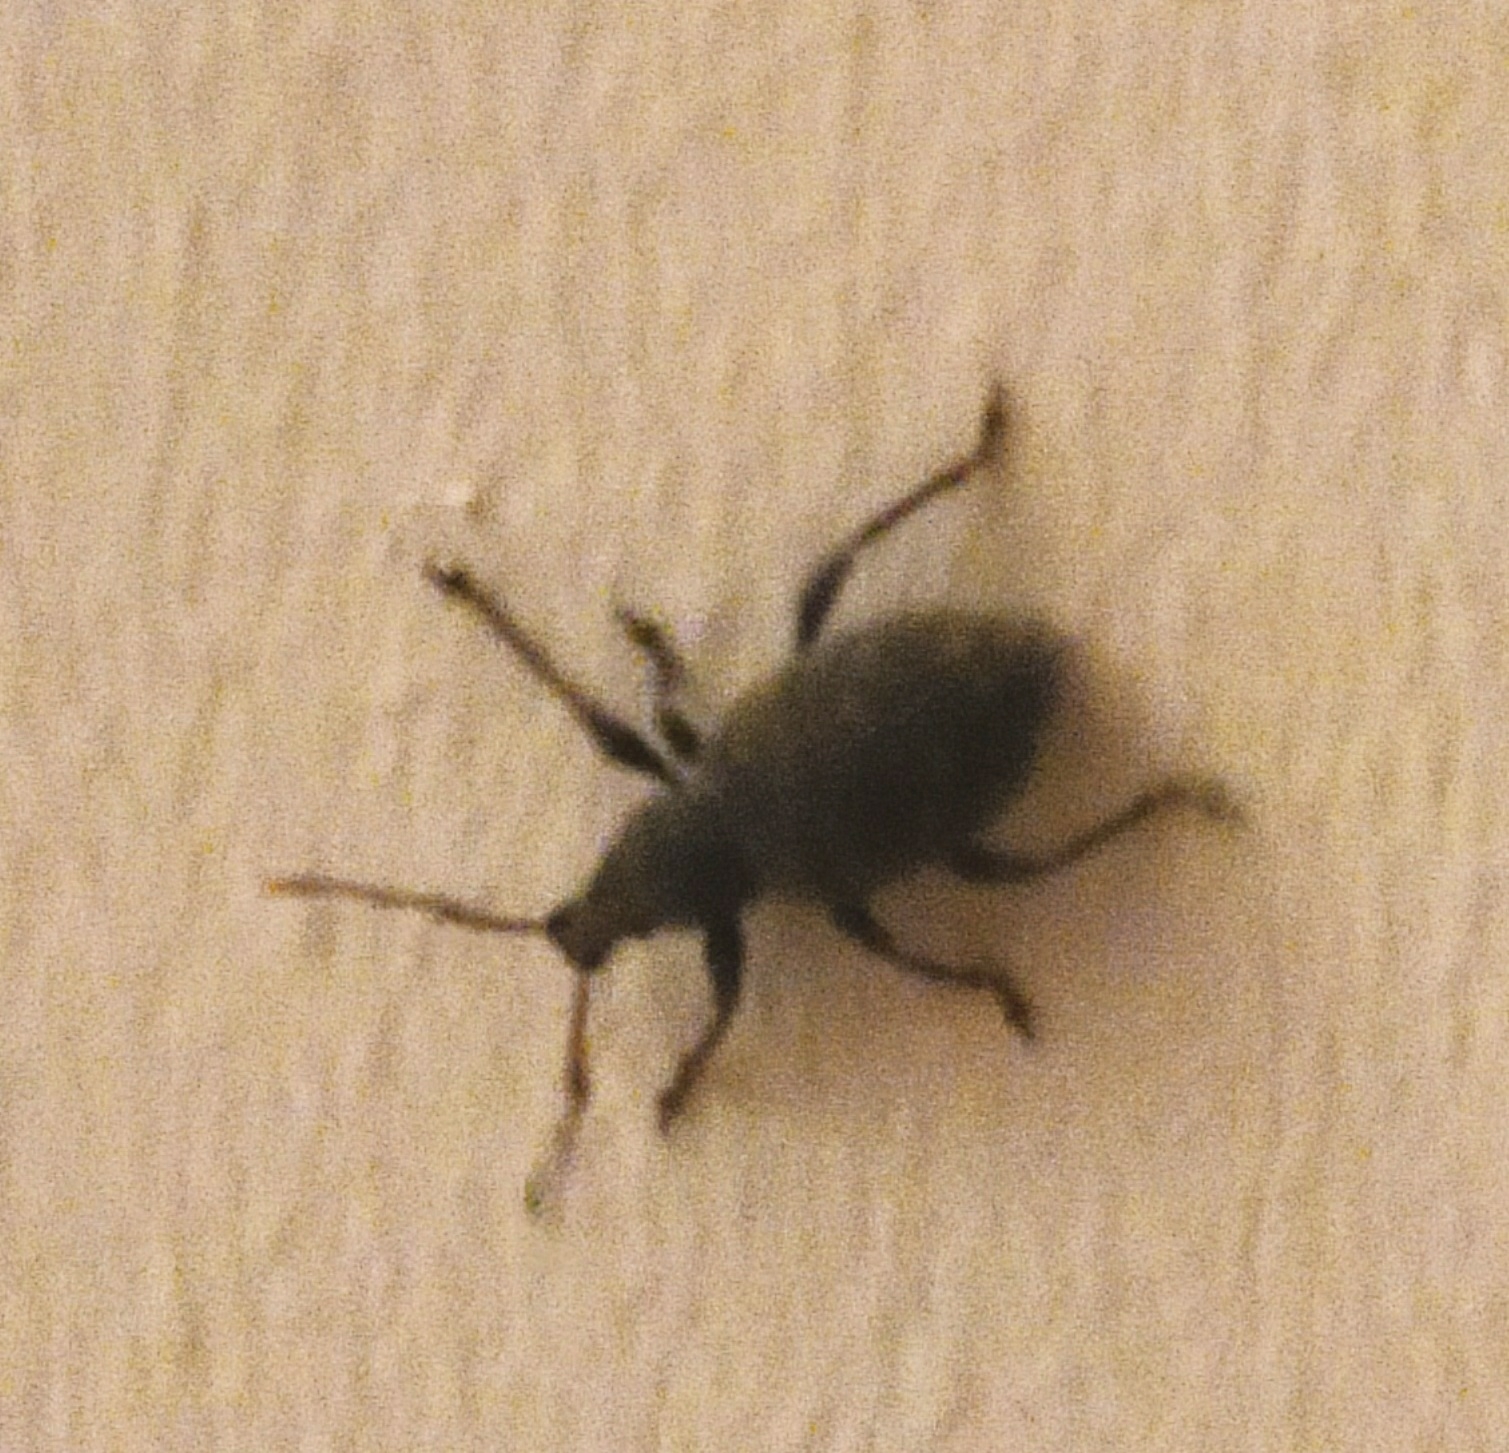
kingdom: Animalia
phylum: Arthropoda
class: Insecta
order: Coleoptera
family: Curculionidae
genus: Otiorhynchus
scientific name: Otiorhynchus sulcatus
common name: Black vine weevil
